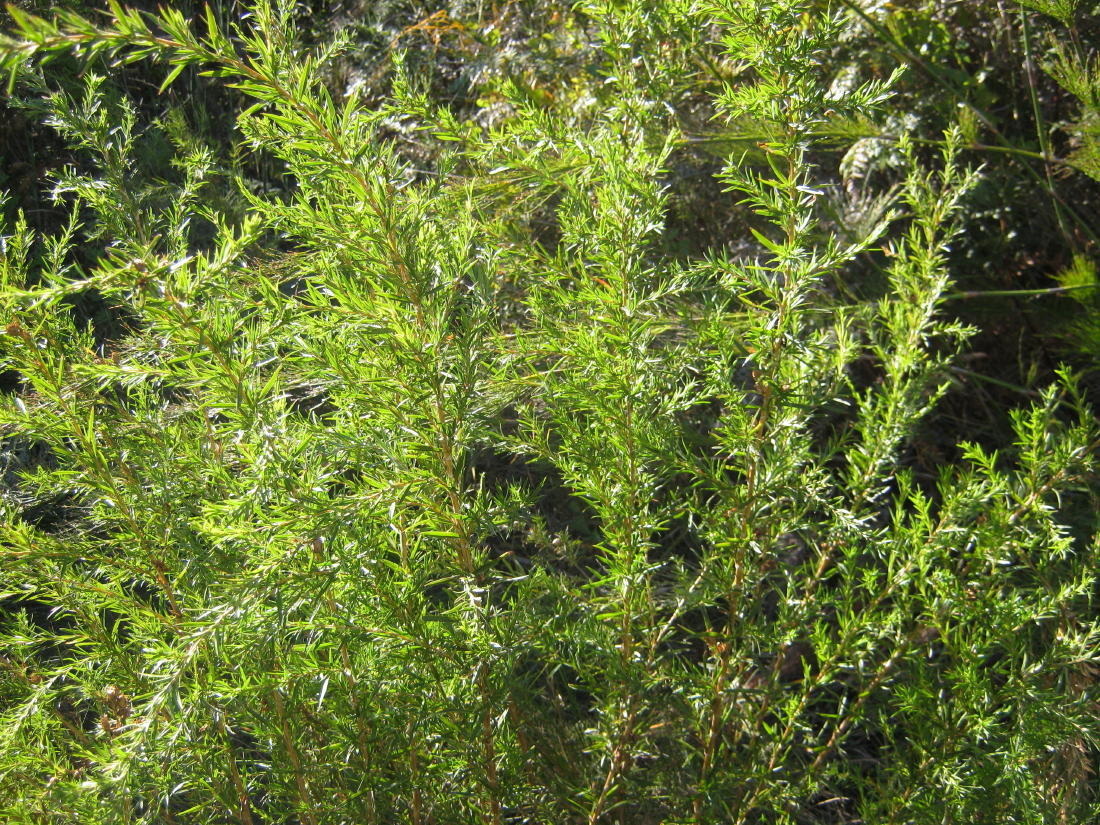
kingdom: Plantae
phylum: Tracheophyta
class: Magnoliopsida
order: Rosales
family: Rosaceae
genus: Cliffortia
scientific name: Cliffortia strobilifera
